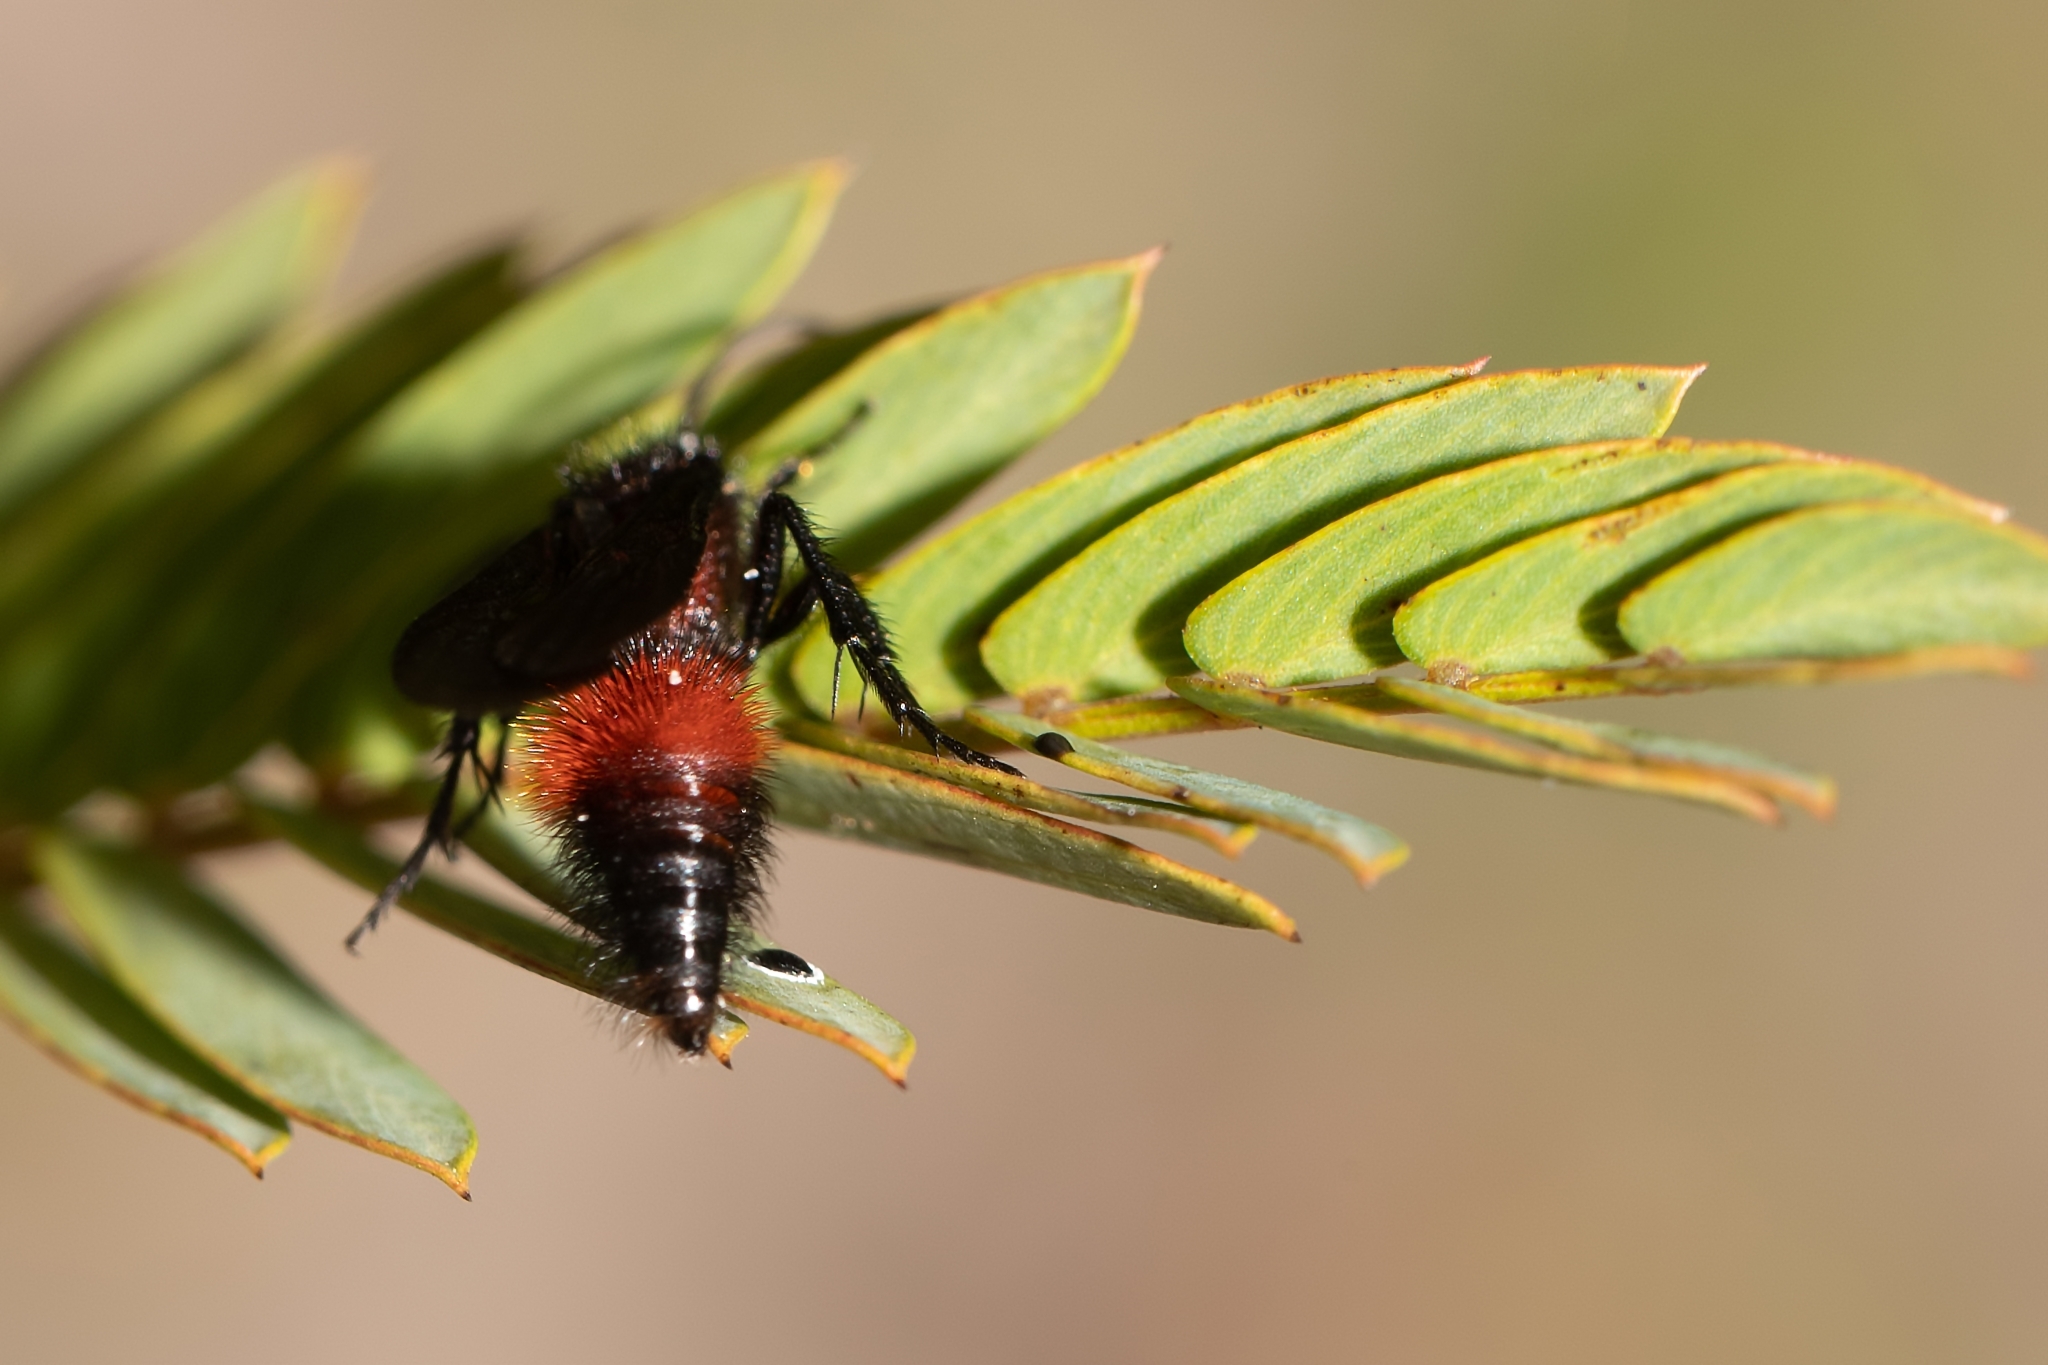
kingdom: Animalia
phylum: Arthropoda
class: Insecta
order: Hymenoptera
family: Mutillidae
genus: Dasymutilla
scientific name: Dasymutilla
